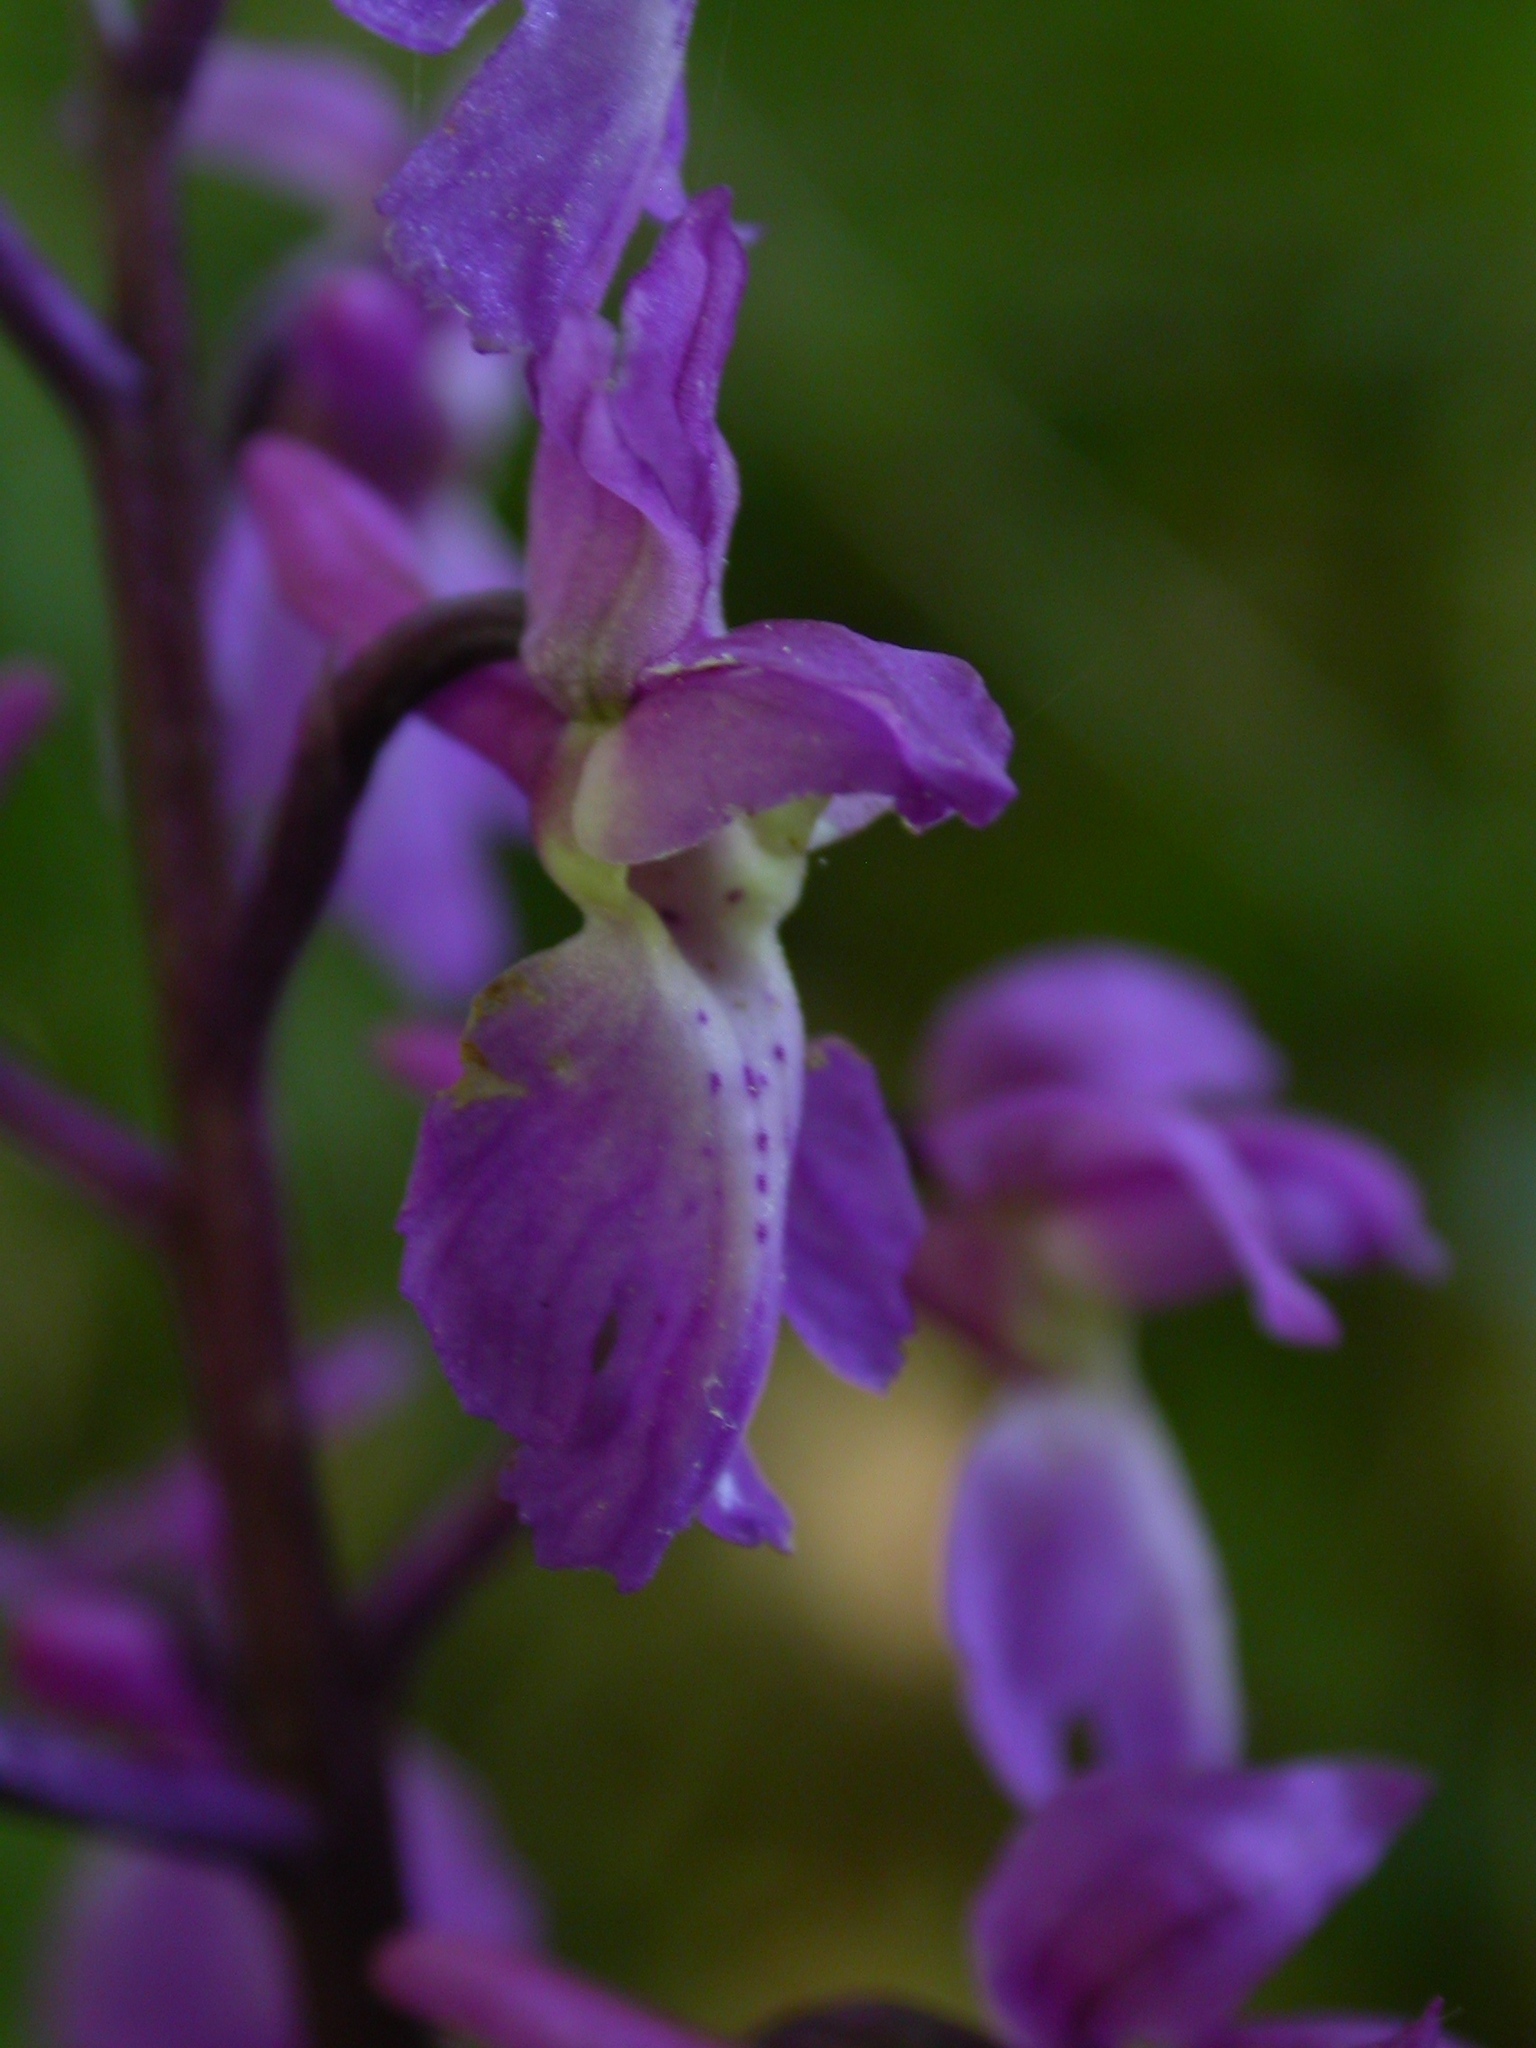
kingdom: Plantae
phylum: Tracheophyta
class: Liliopsida
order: Asparagales
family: Orchidaceae
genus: Orchis
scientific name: Orchis mascula
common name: Early-purple orchid
